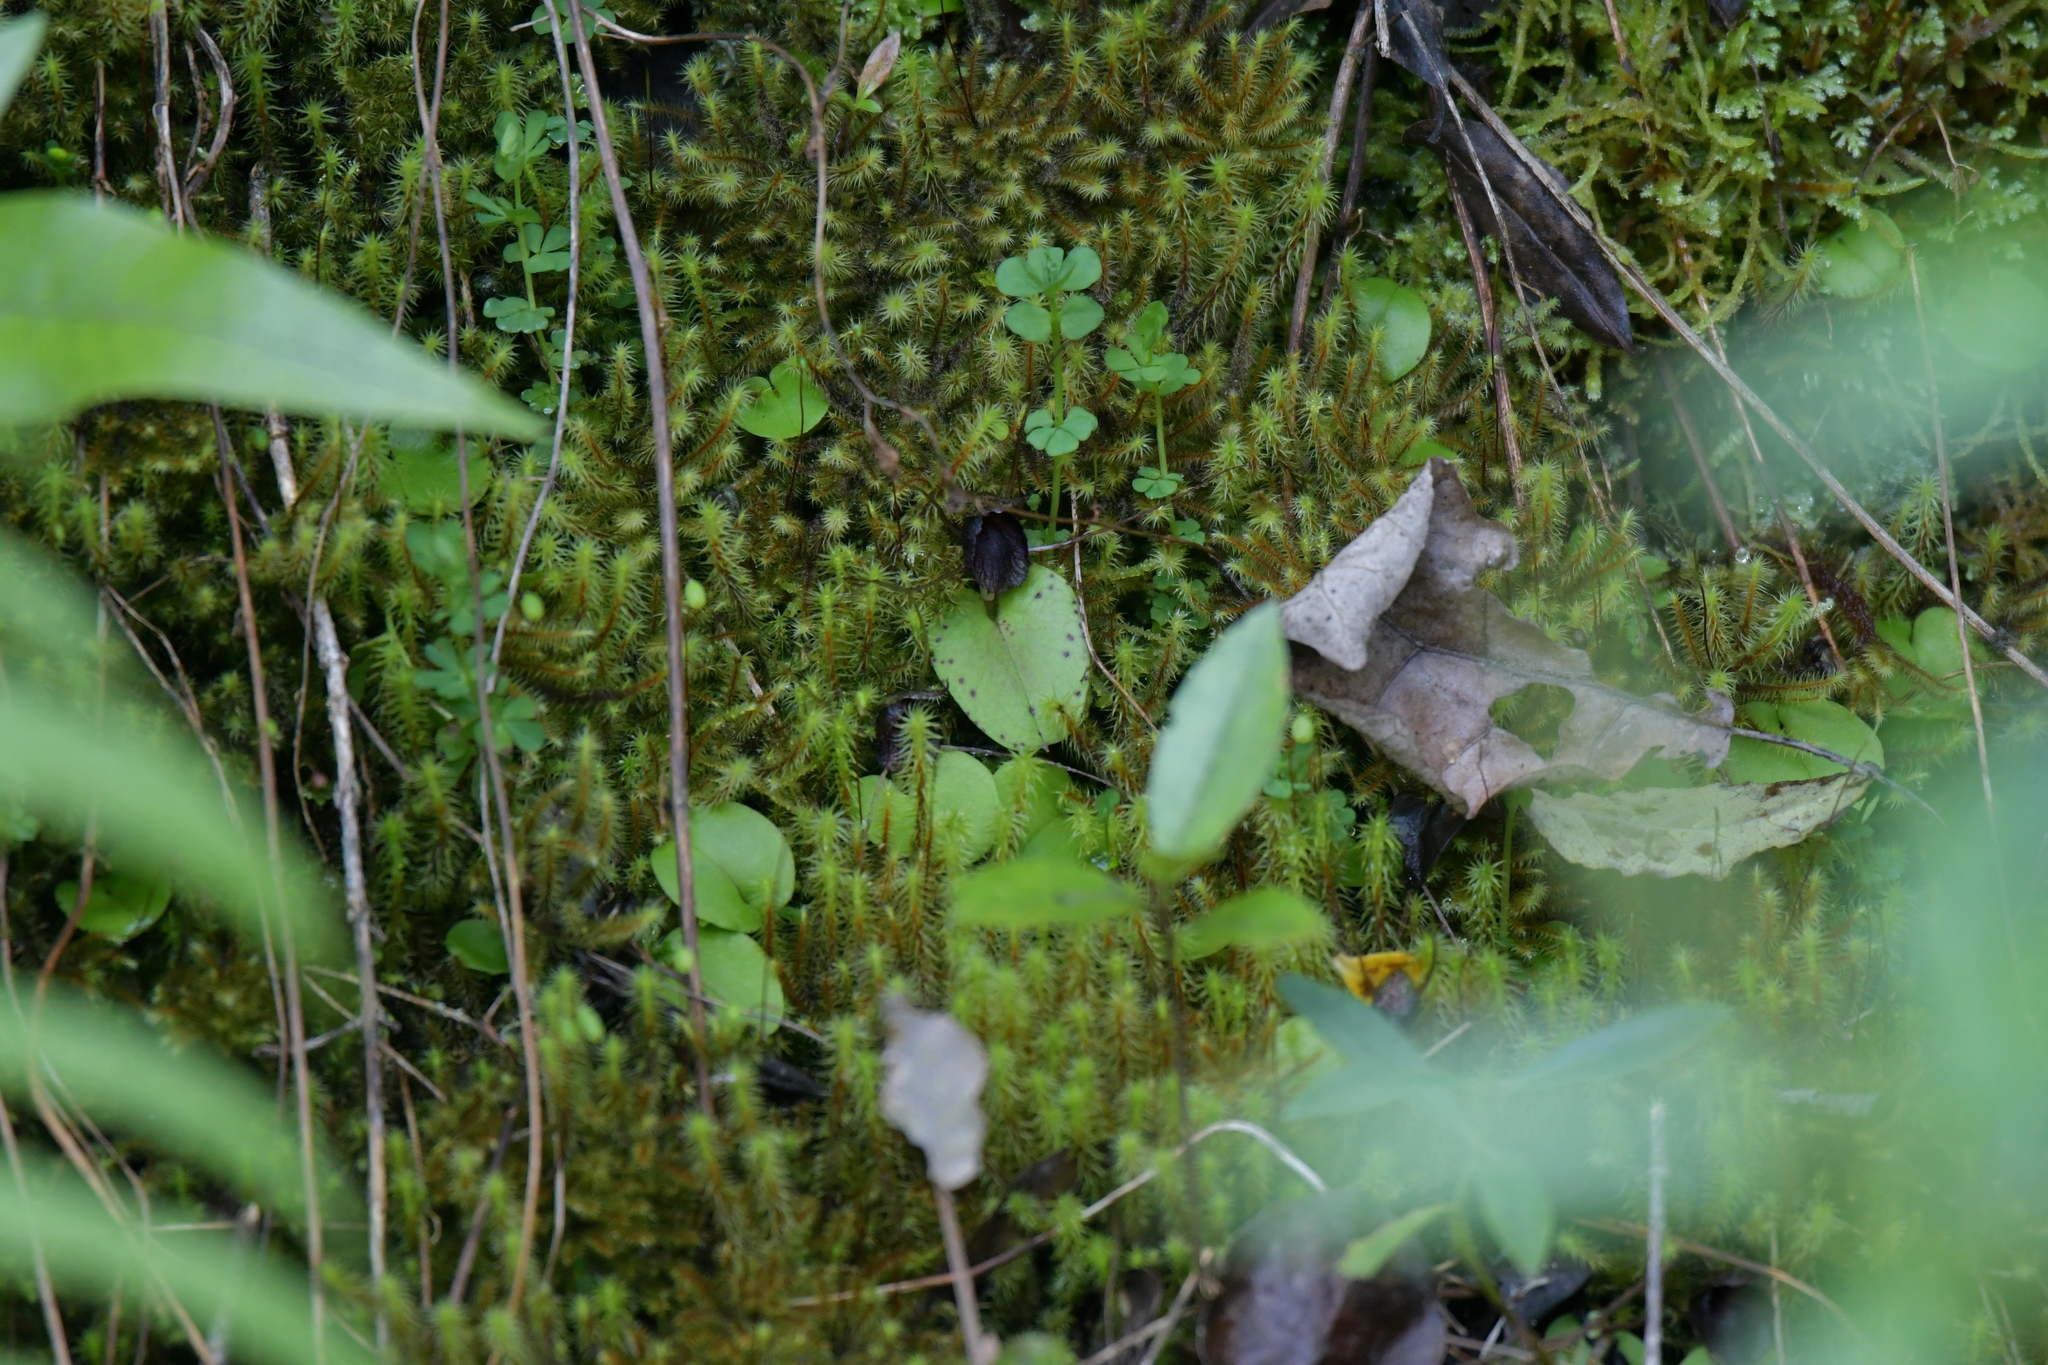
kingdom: Plantae
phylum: Tracheophyta
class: Liliopsida
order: Asparagales
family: Orchidaceae
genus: Corybas
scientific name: Corybas iridescens
